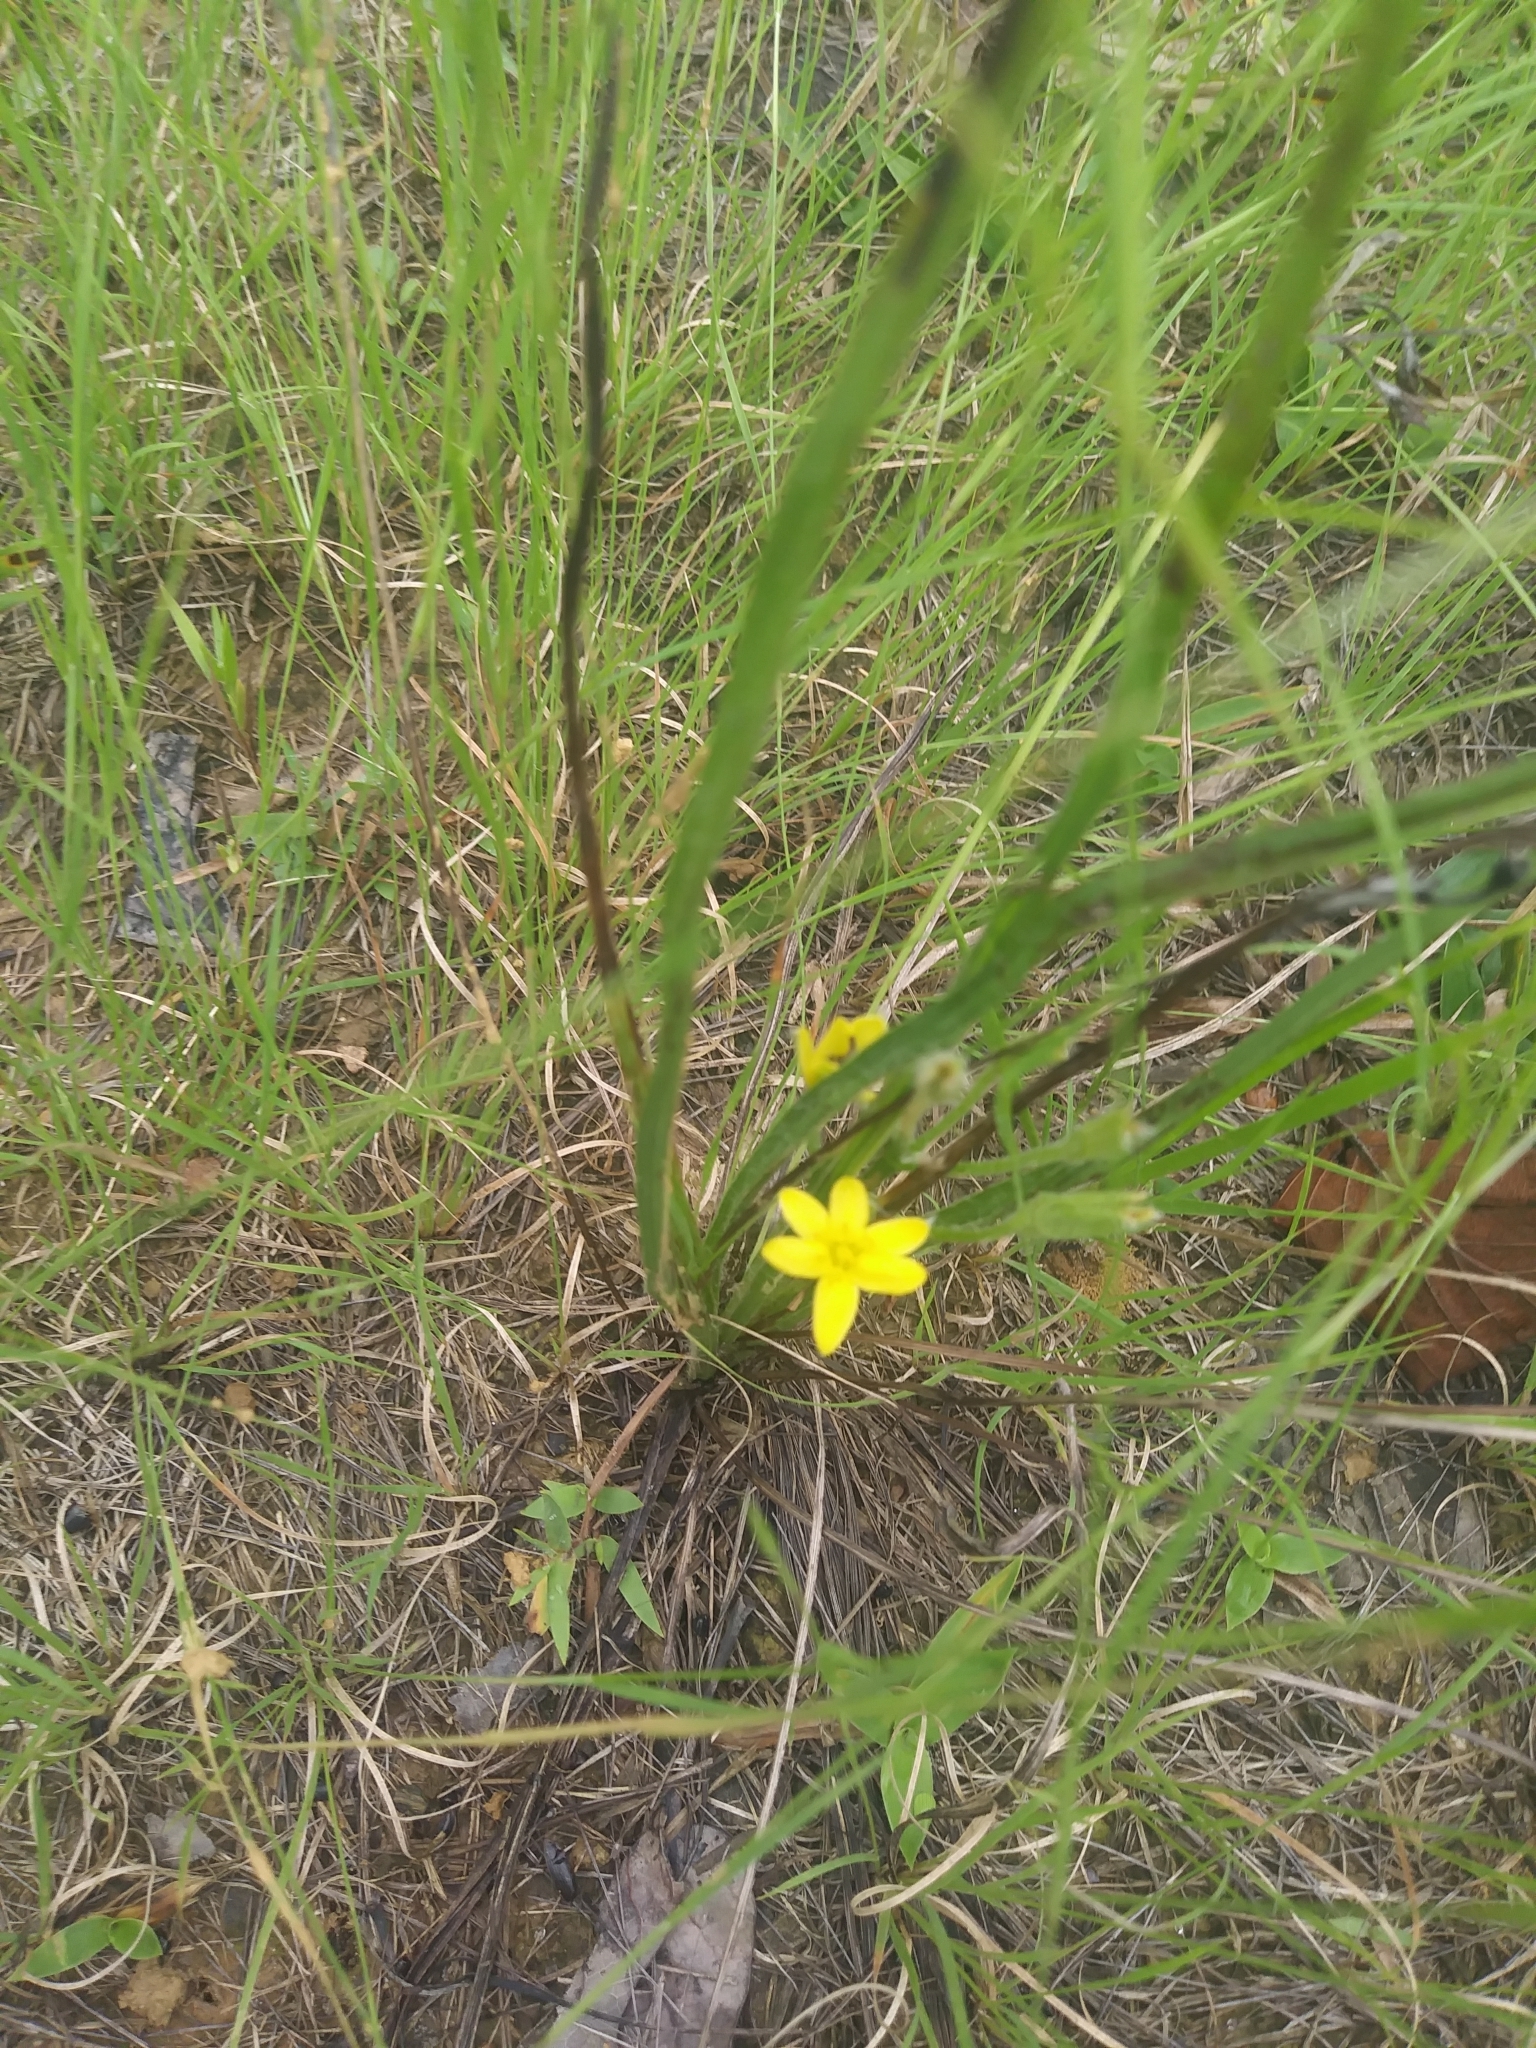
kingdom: Plantae
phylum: Tracheophyta
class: Liliopsida
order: Asparagales
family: Hypoxidaceae
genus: Hypoxis
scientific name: Hypoxis hirsuta
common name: Common goldstar
